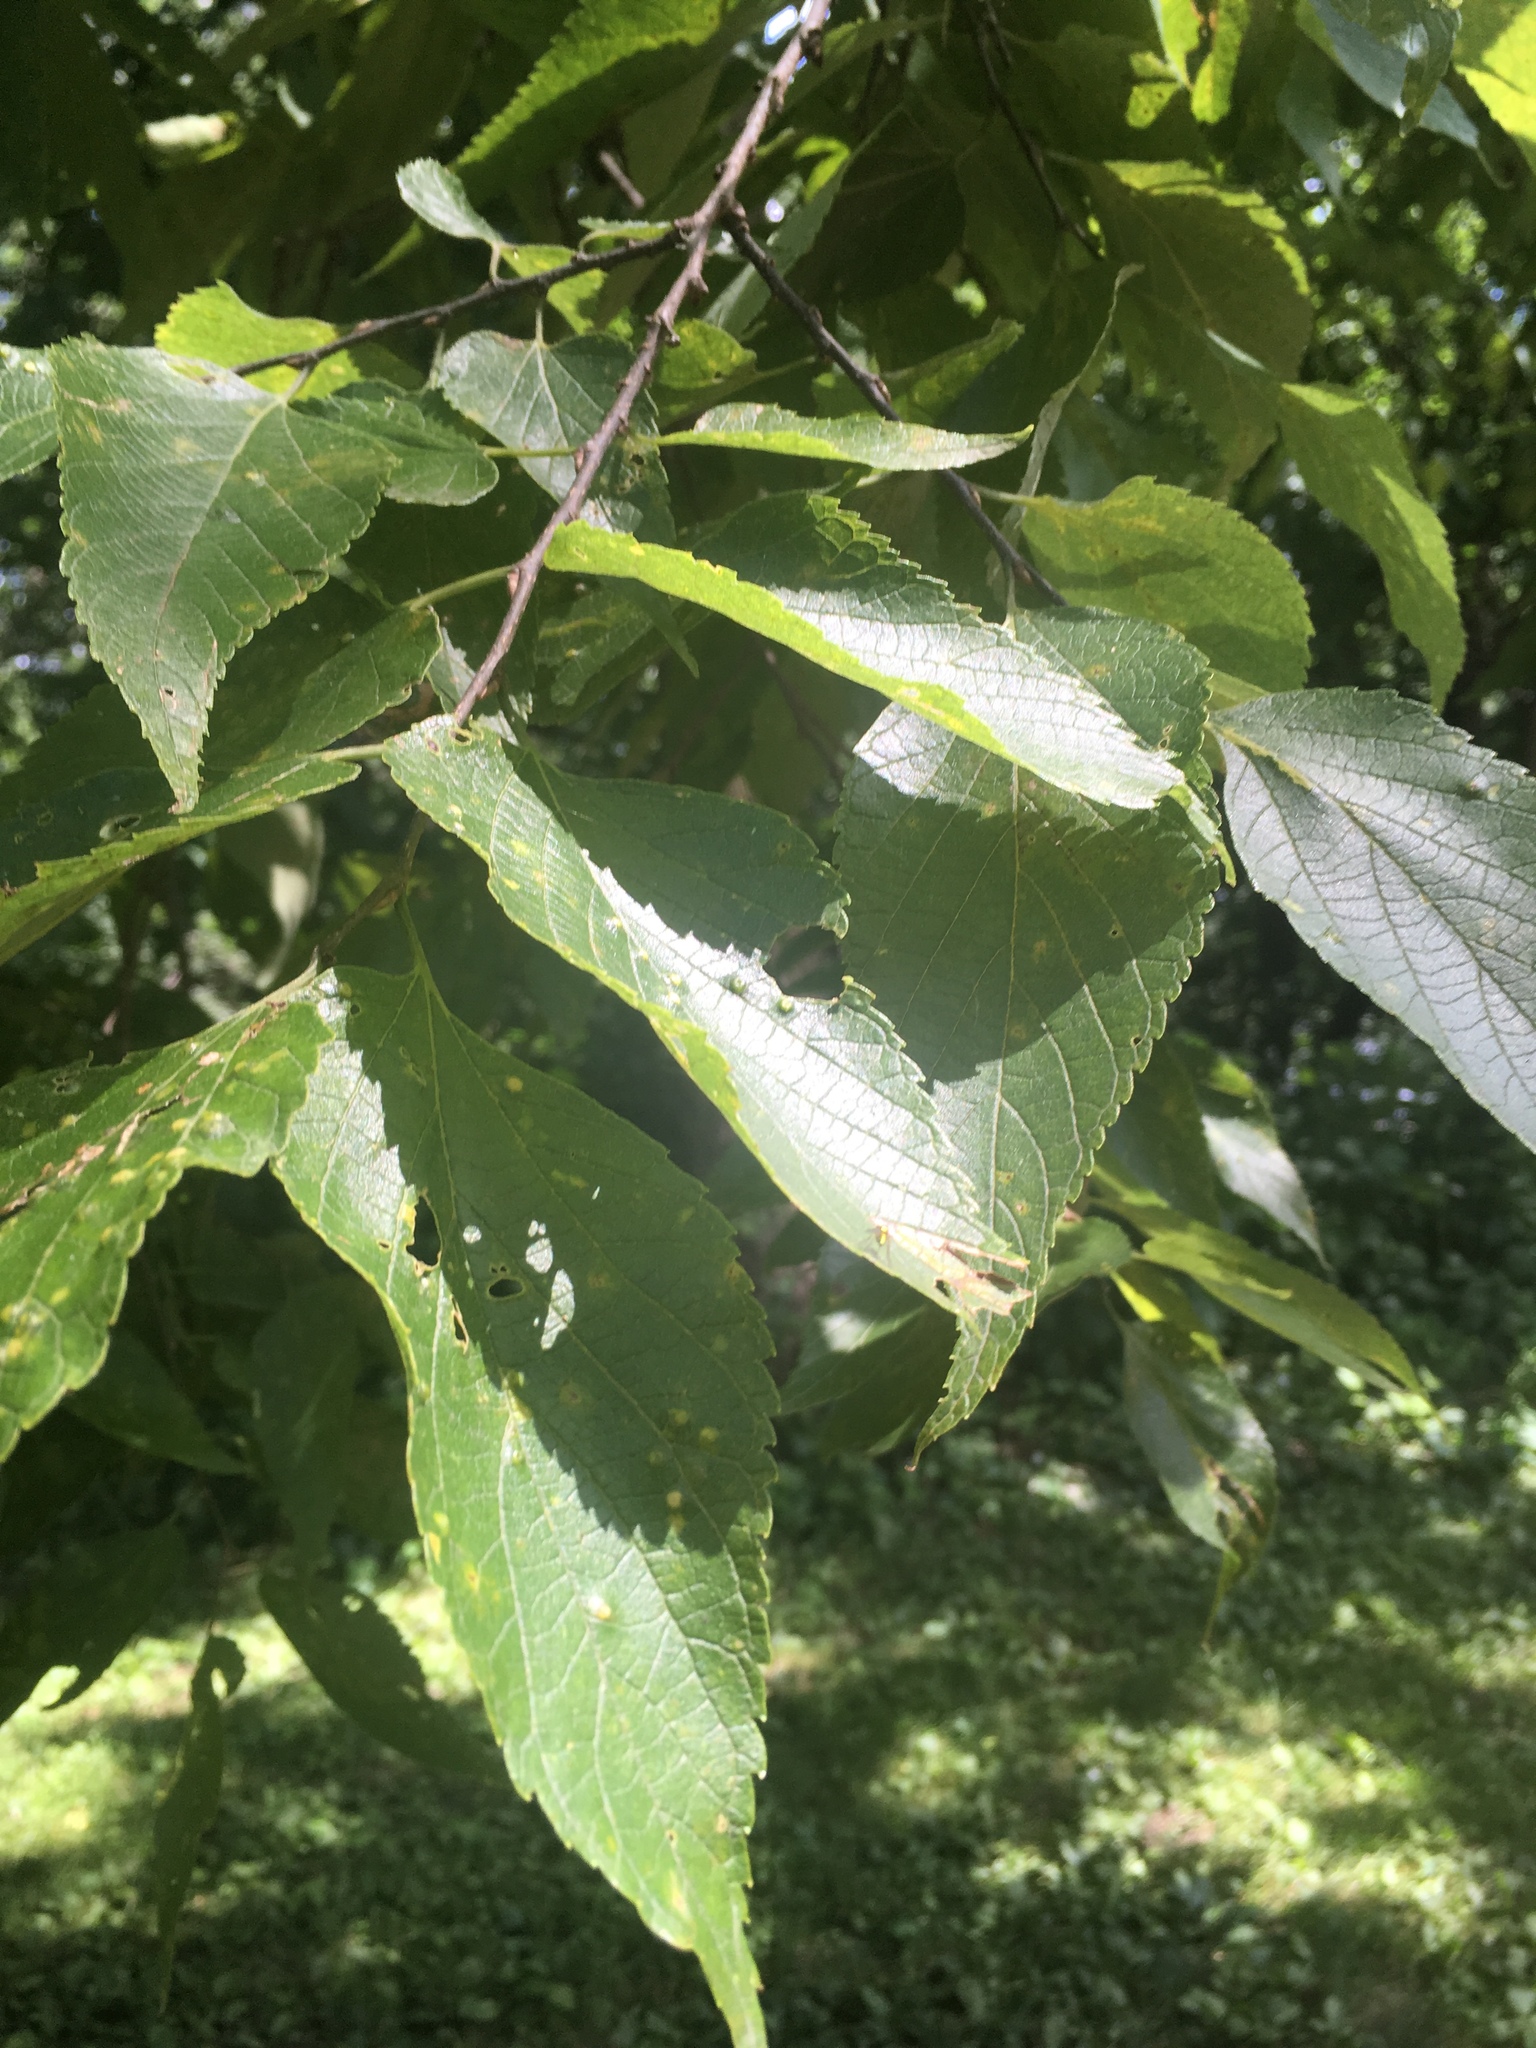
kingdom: Plantae
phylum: Tracheophyta
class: Magnoliopsida
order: Rosales
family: Cannabaceae
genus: Celtis
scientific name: Celtis occidentalis
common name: Common hackberry
